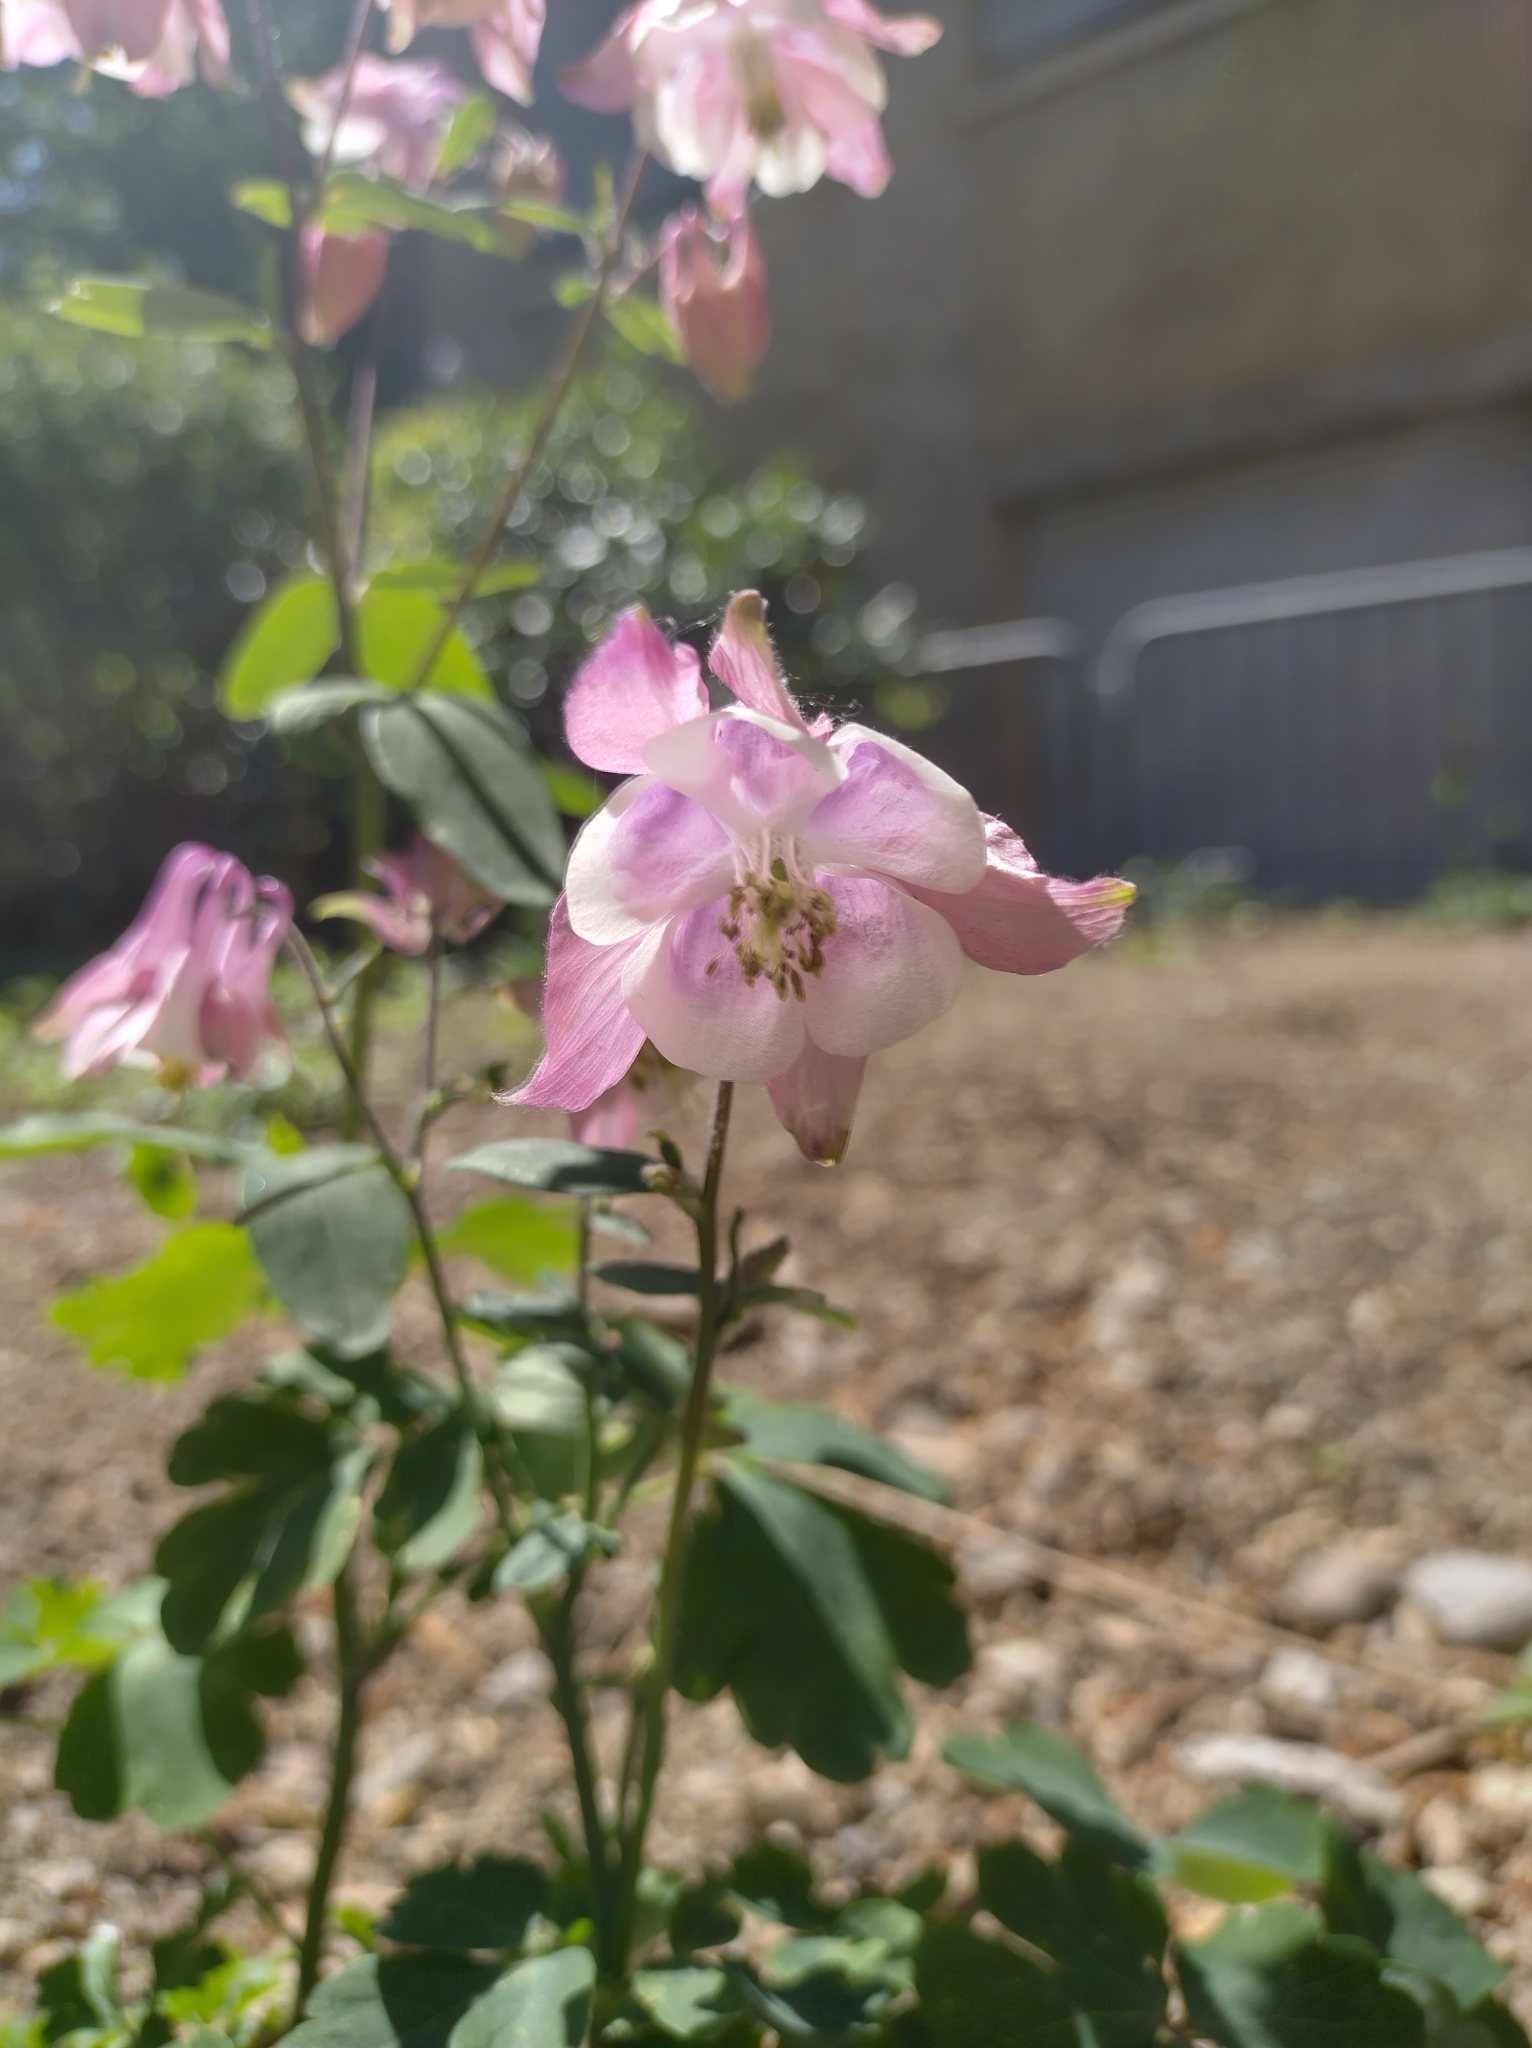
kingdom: Plantae
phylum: Tracheophyta
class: Magnoliopsida
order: Ranunculales
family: Ranunculaceae
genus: Aquilegia
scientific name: Aquilegia vulgaris
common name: Columbine
